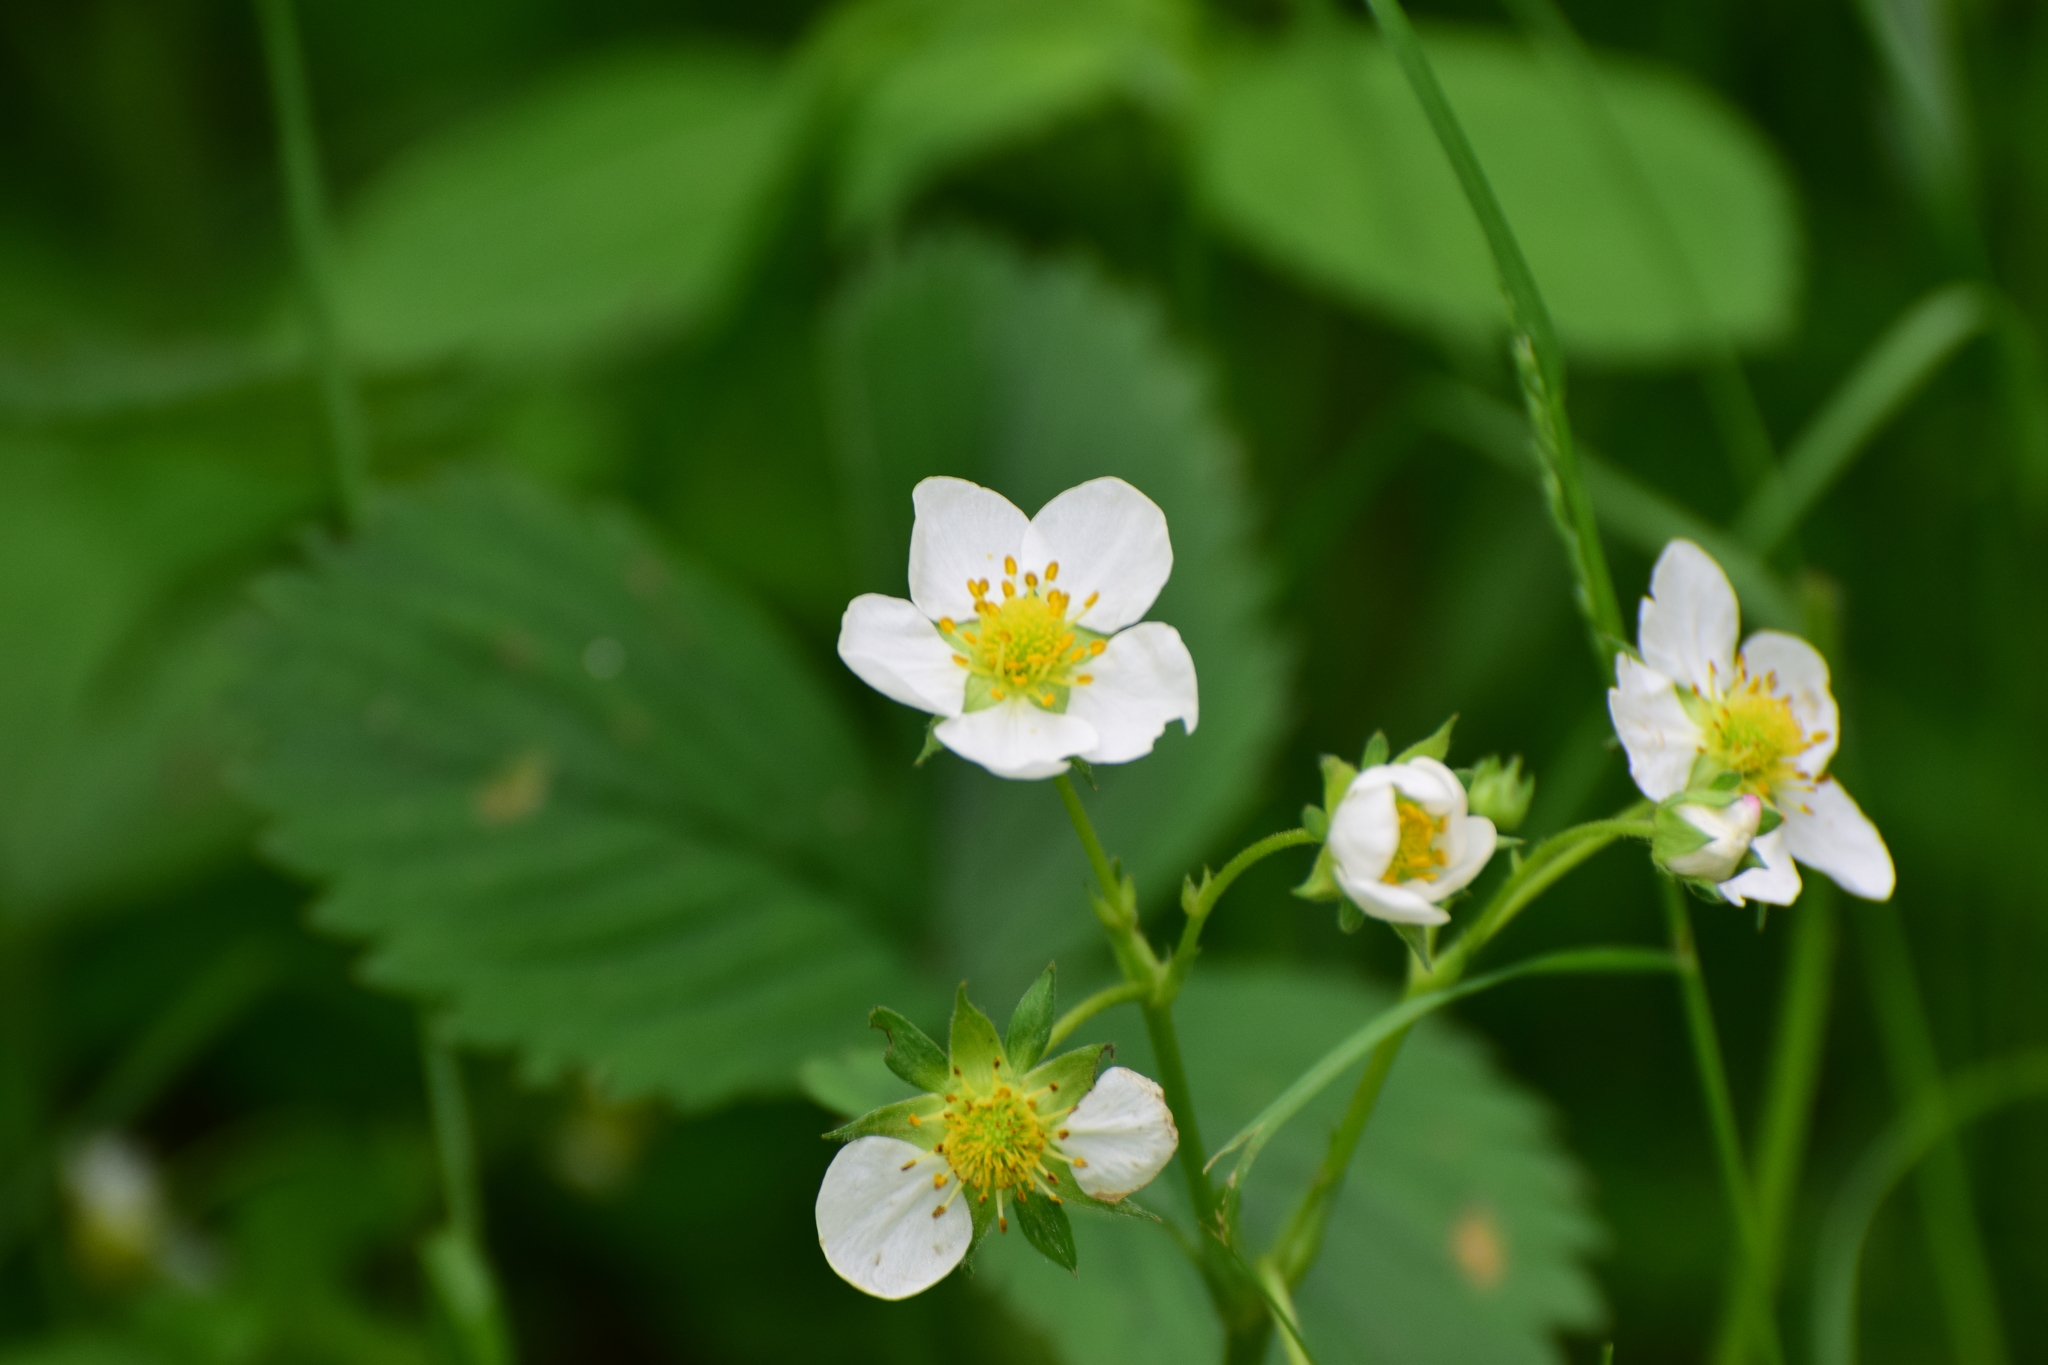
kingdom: Plantae
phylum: Tracheophyta
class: Magnoliopsida
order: Rosales
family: Rosaceae
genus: Fragaria
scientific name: Fragaria ananassa
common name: Garden strawberry
